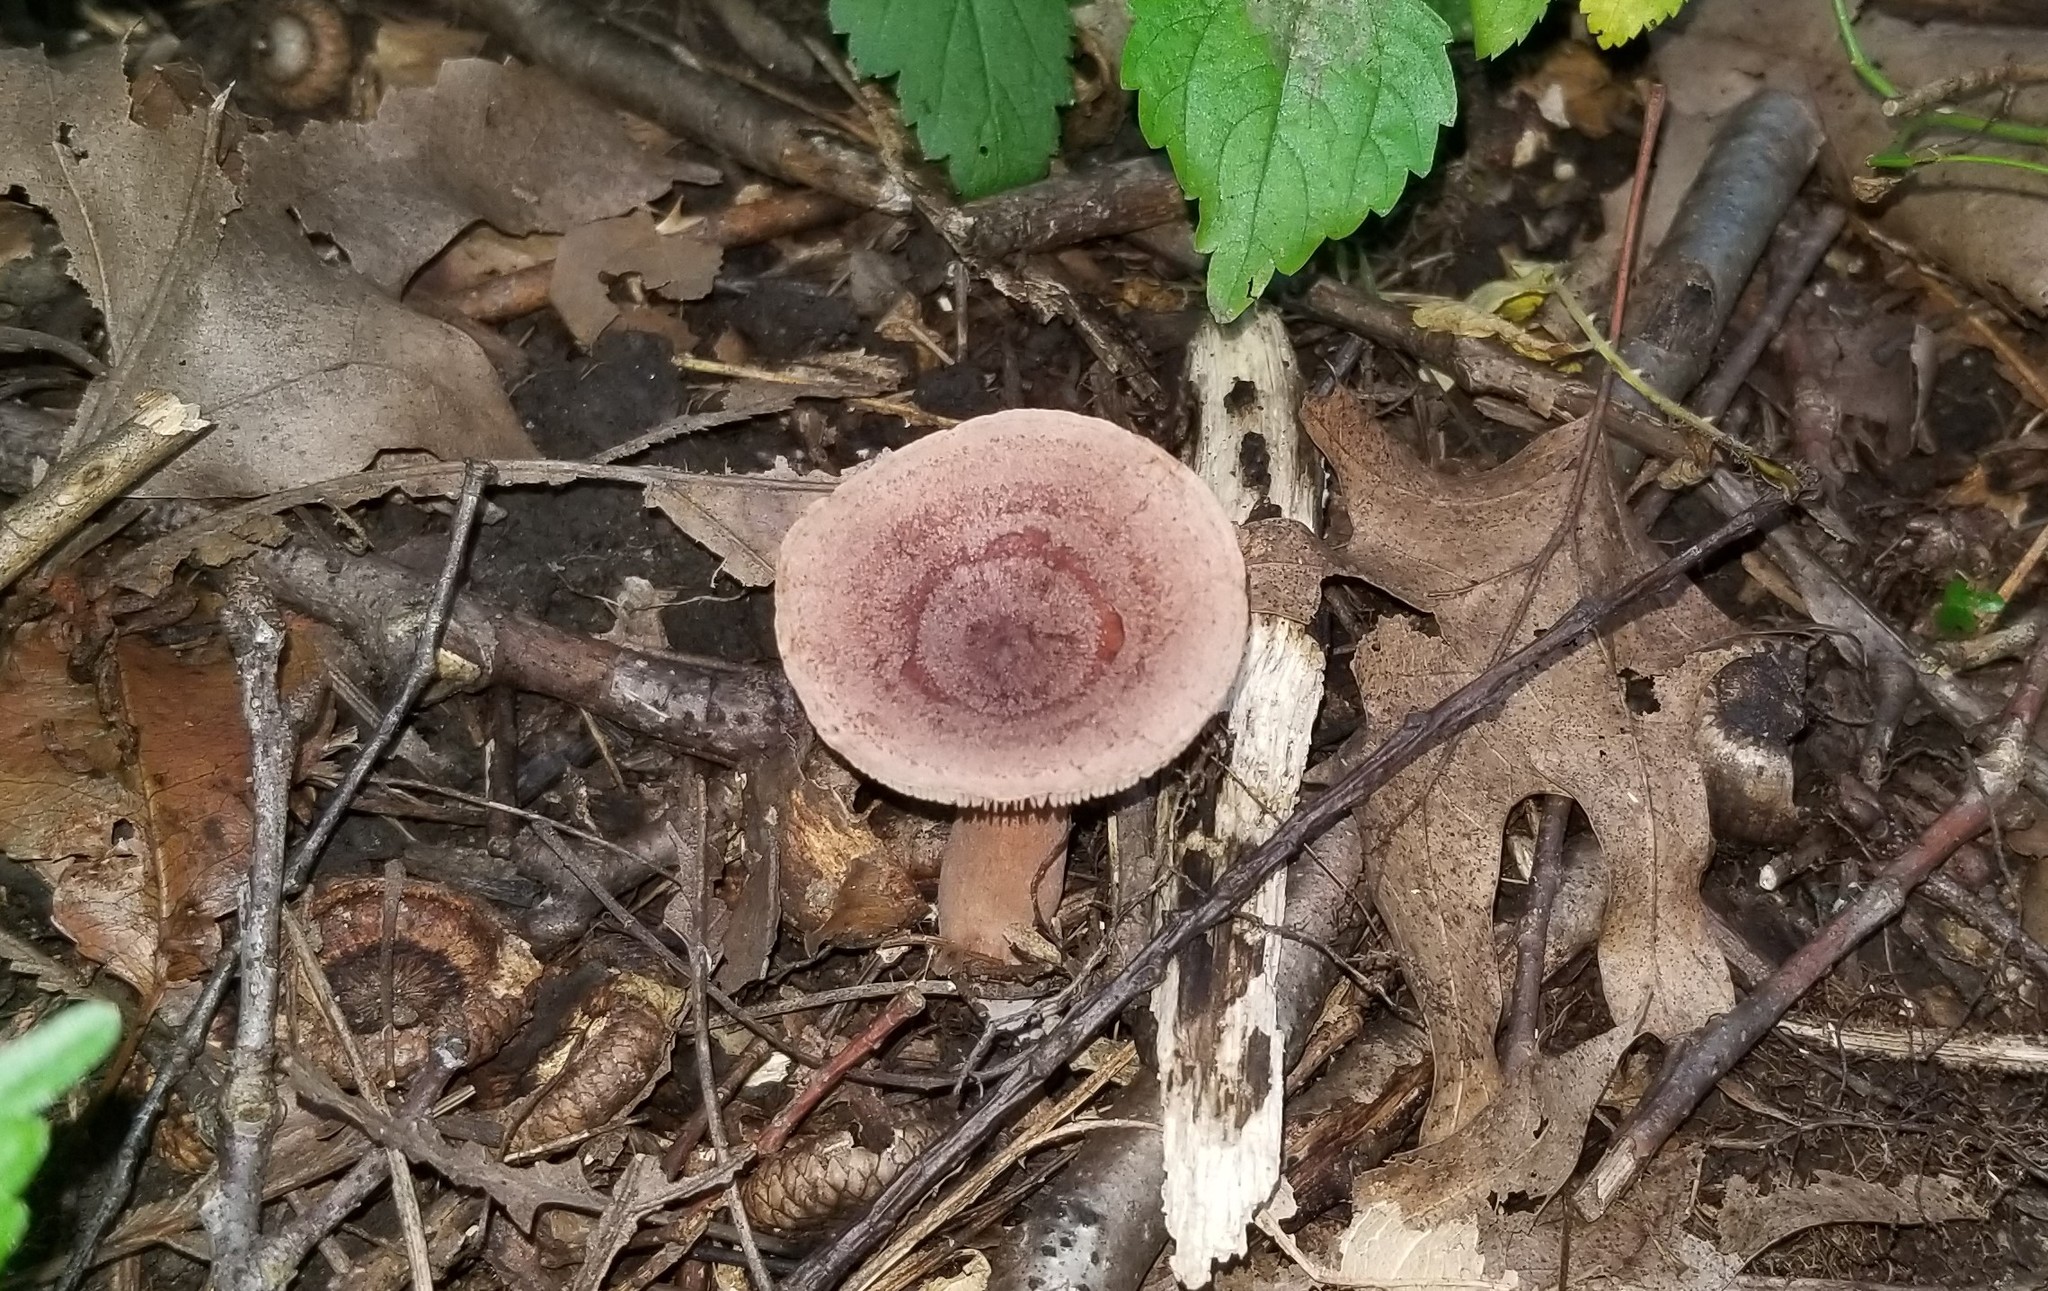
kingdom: Fungi
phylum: Basidiomycota
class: Agaricomycetes
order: Russulales
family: Russulaceae
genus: Lactarius
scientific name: Lactarius quietus
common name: Oak milk-cap
